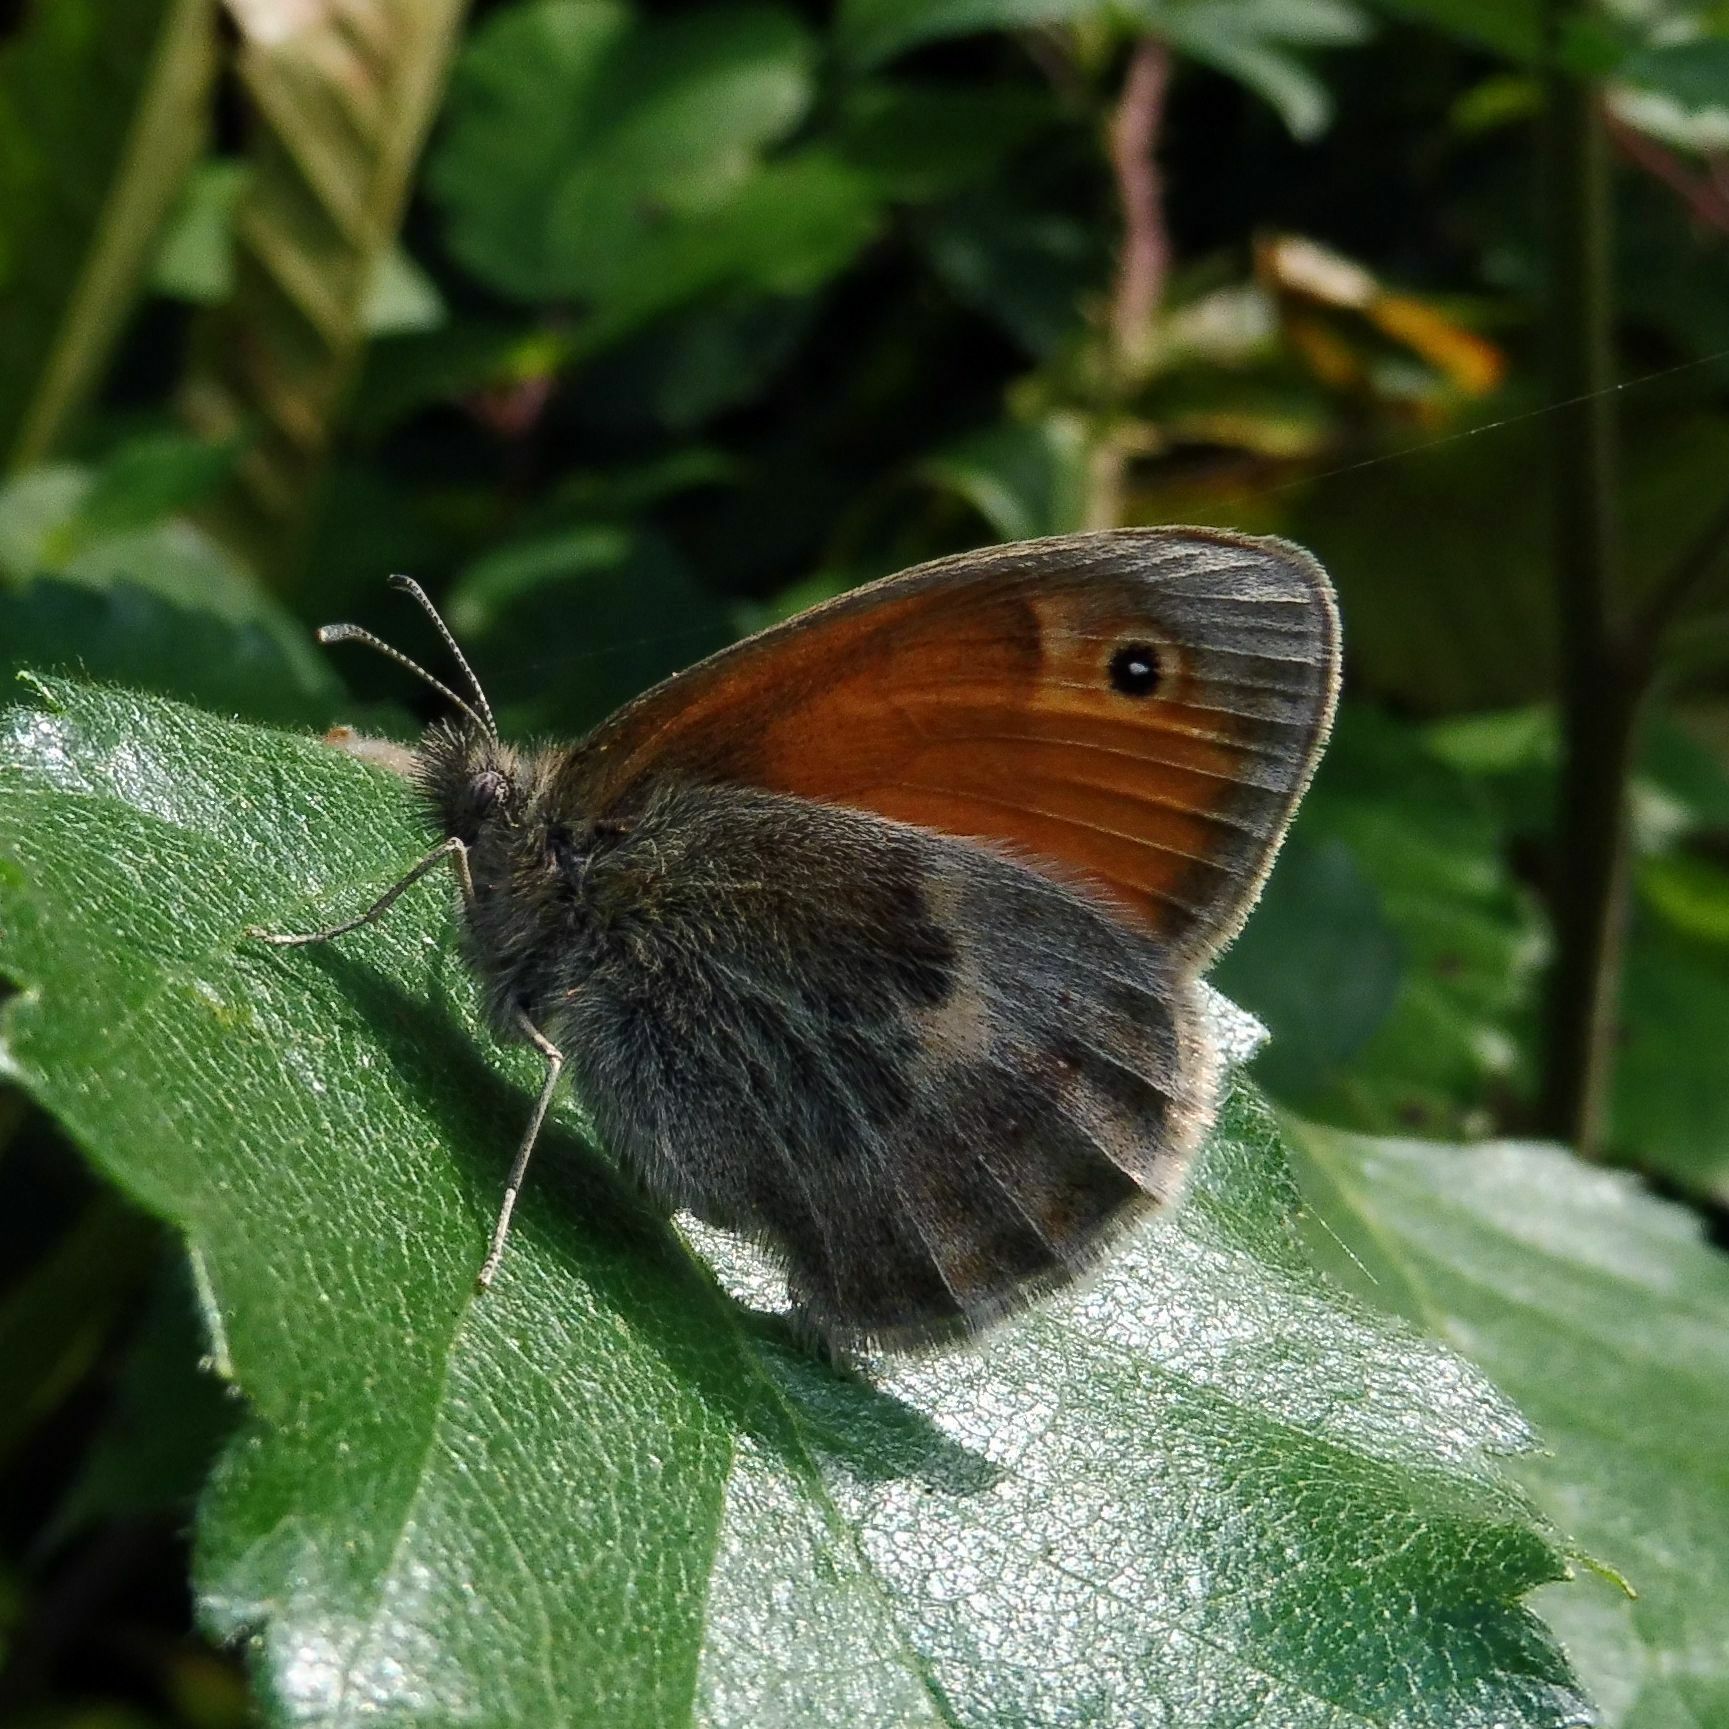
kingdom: Animalia
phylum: Arthropoda
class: Insecta
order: Lepidoptera
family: Nymphalidae
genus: Coenonympha
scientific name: Coenonympha pamphilus
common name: Small heath
